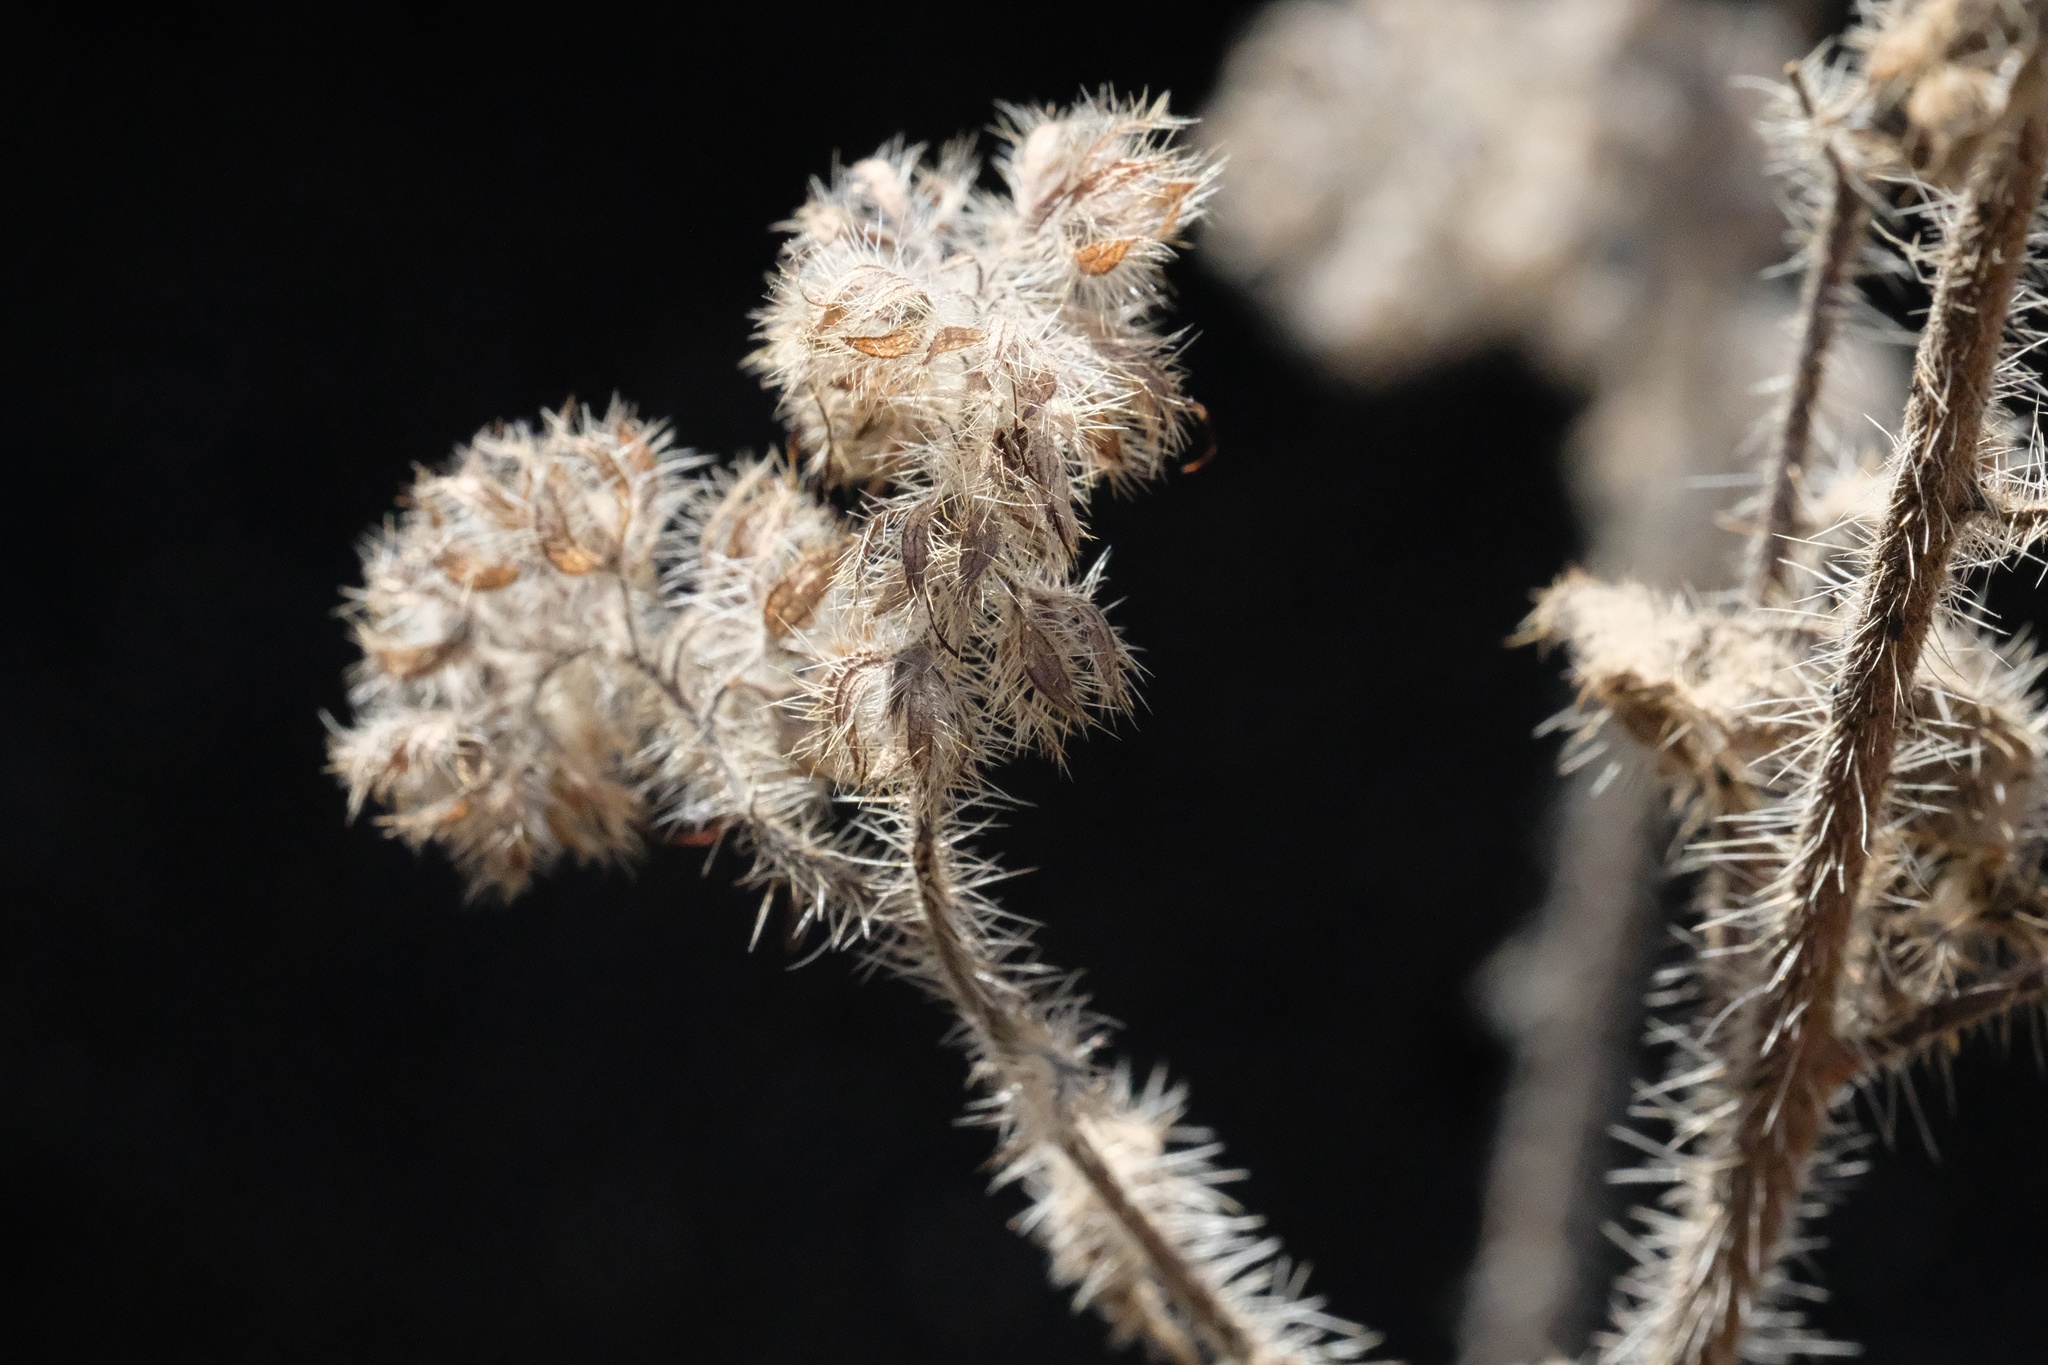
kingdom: Plantae
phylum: Tracheophyta
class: Magnoliopsida
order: Boraginales
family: Hydrophyllaceae
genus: Phacelia
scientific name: Phacelia imbricata
